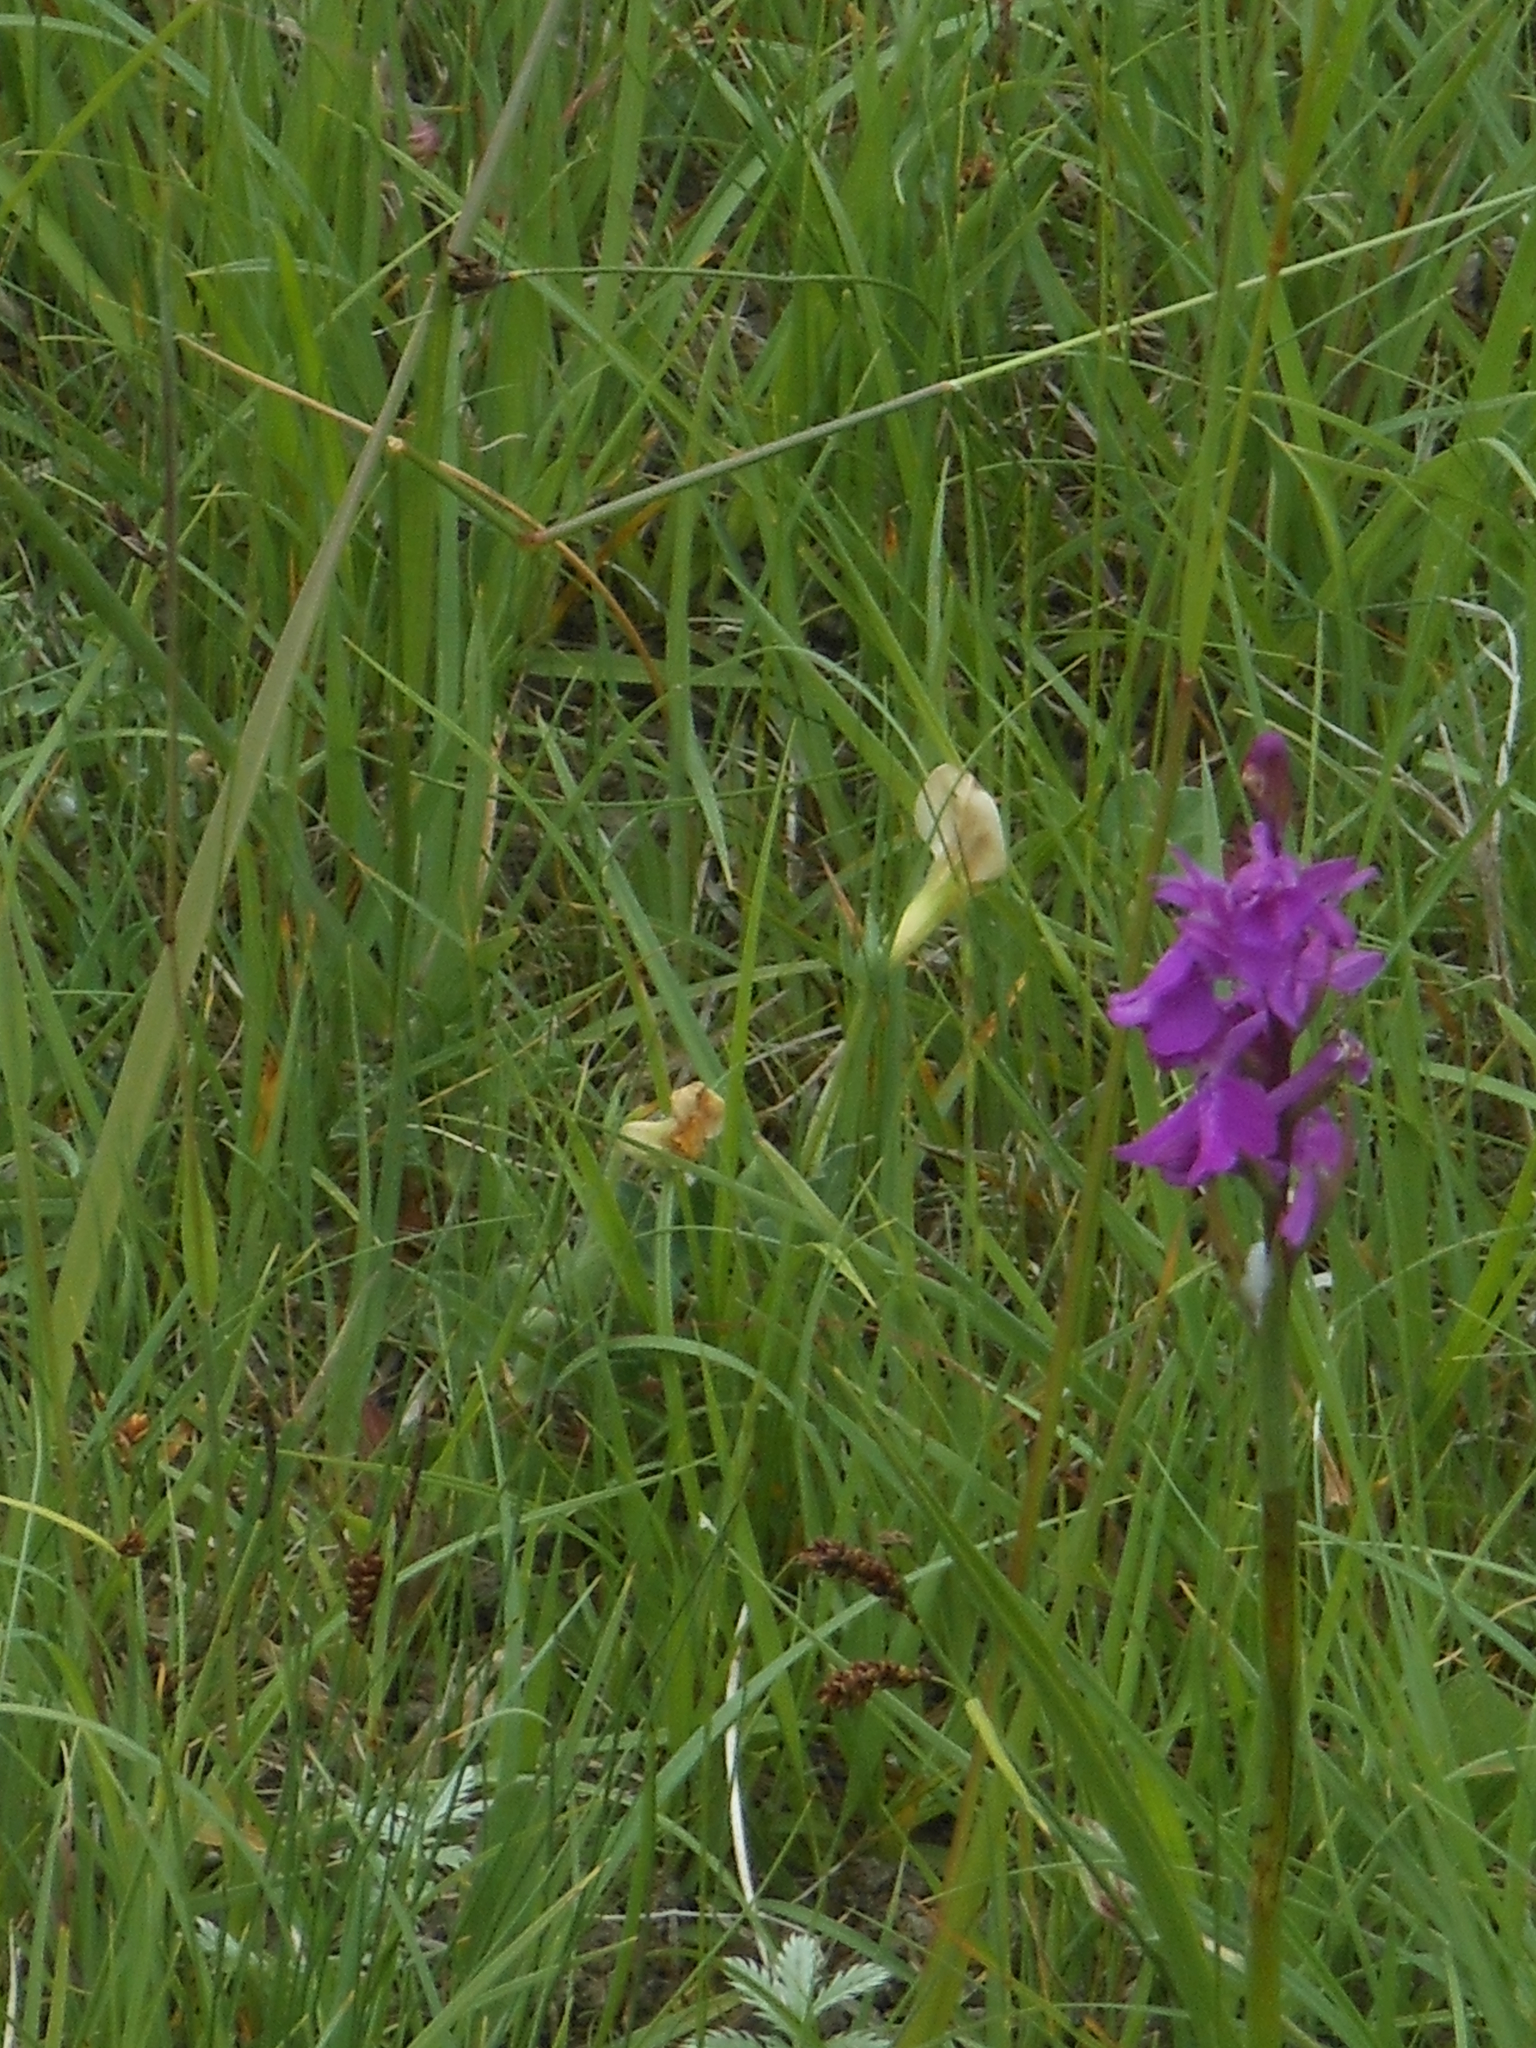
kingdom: Plantae
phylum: Tracheophyta
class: Liliopsida
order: Asparagales
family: Orchidaceae
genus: Anacamptis
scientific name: Anacamptis palustris
